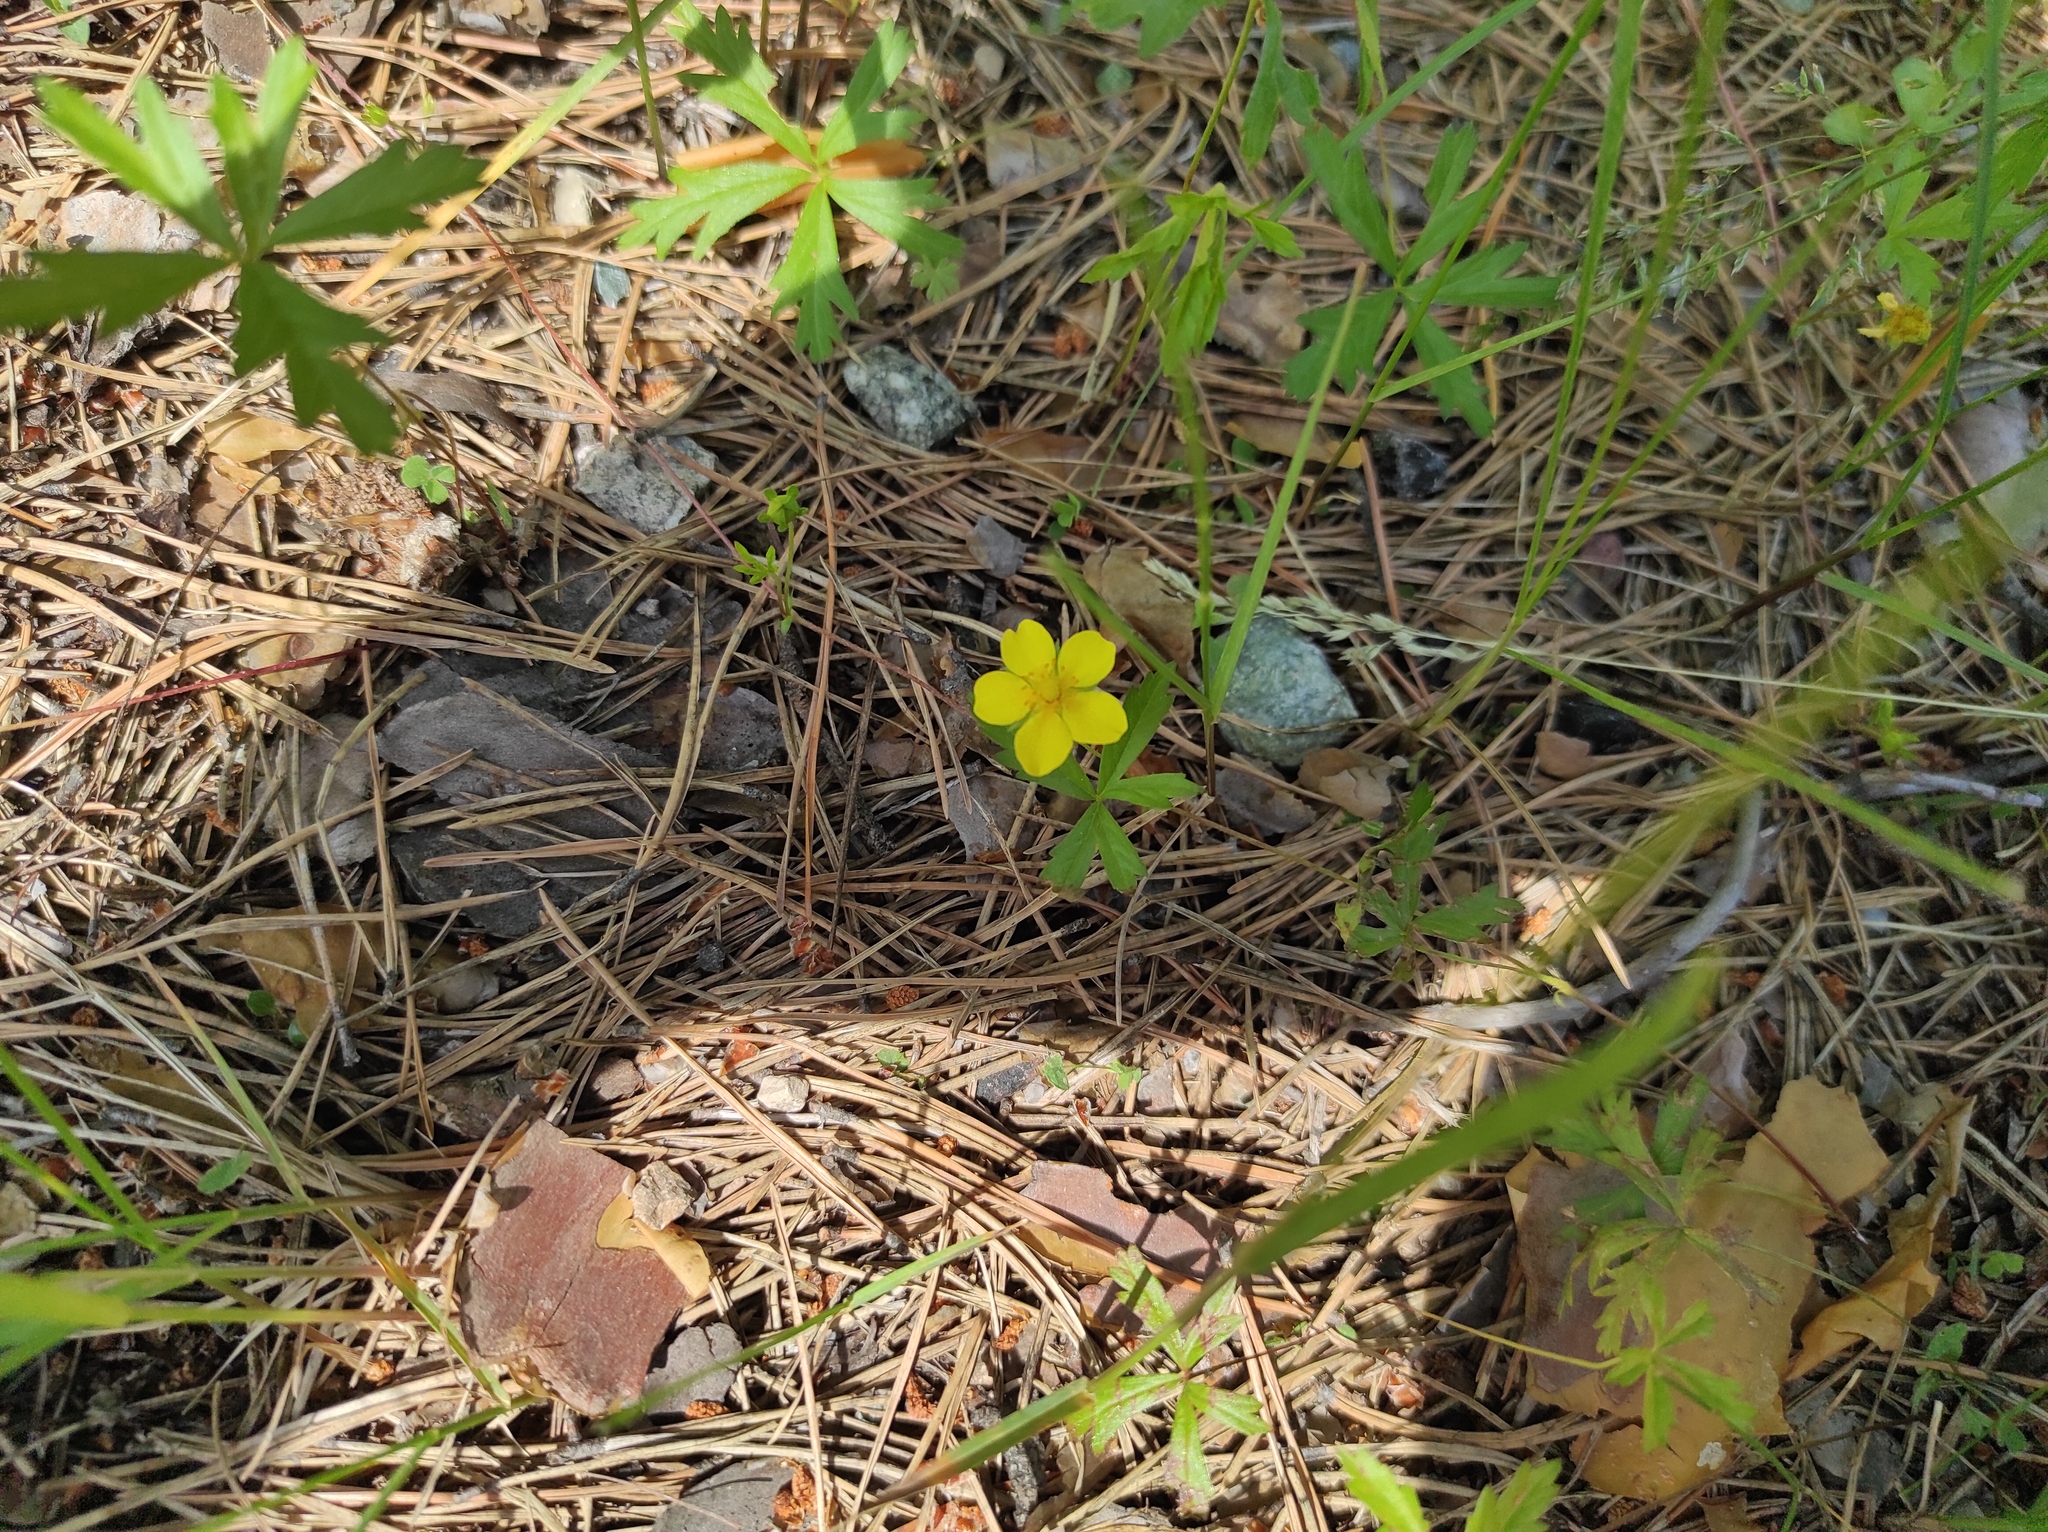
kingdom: Plantae
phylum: Tracheophyta
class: Magnoliopsida
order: Rosales
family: Rosaceae
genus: Potentilla
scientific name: Potentilla flagellaris
